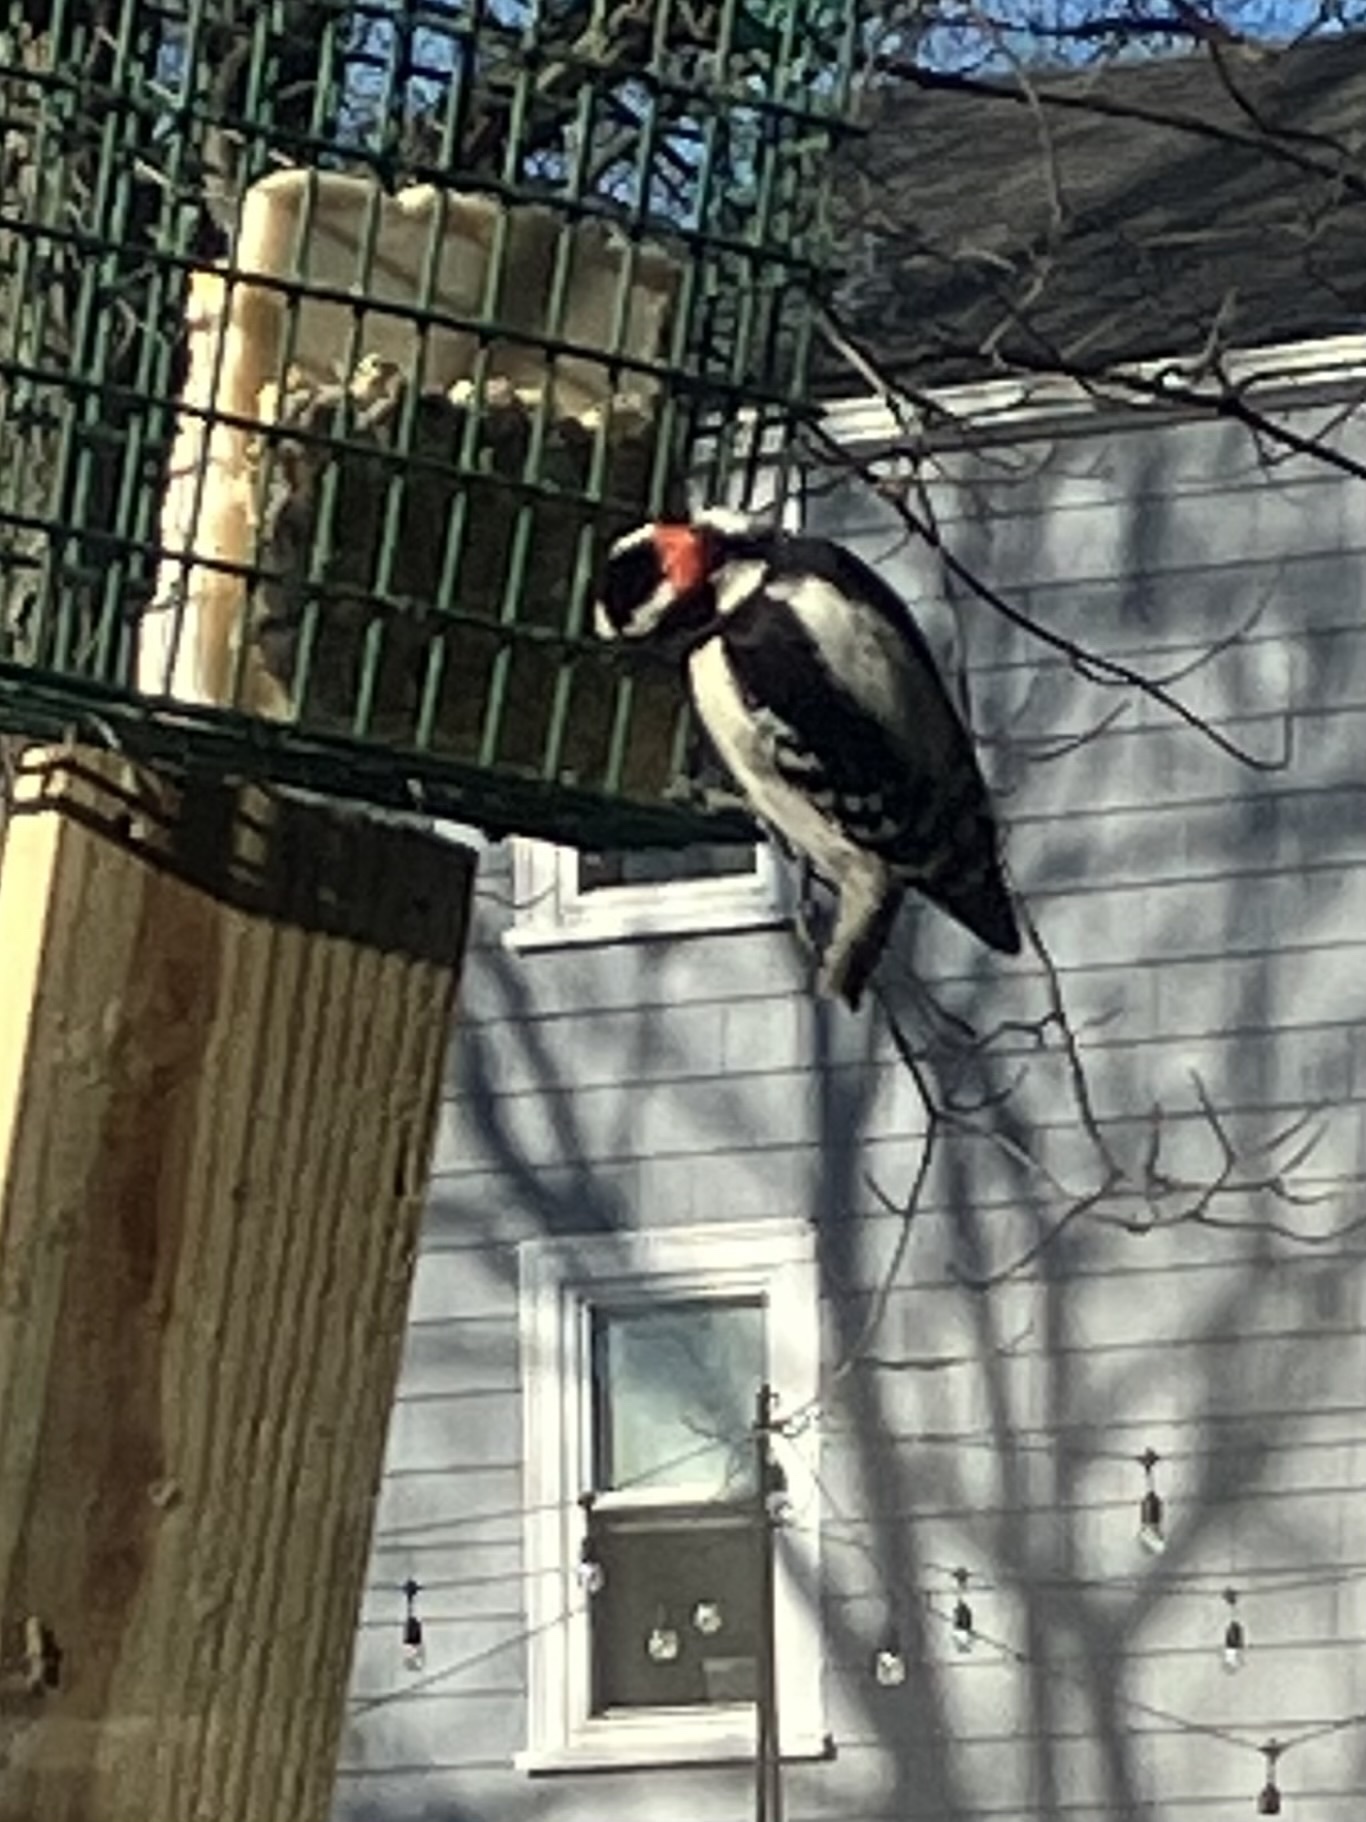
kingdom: Animalia
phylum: Chordata
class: Aves
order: Piciformes
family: Picidae
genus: Dryobates
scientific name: Dryobates pubescens
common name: Downy woodpecker
